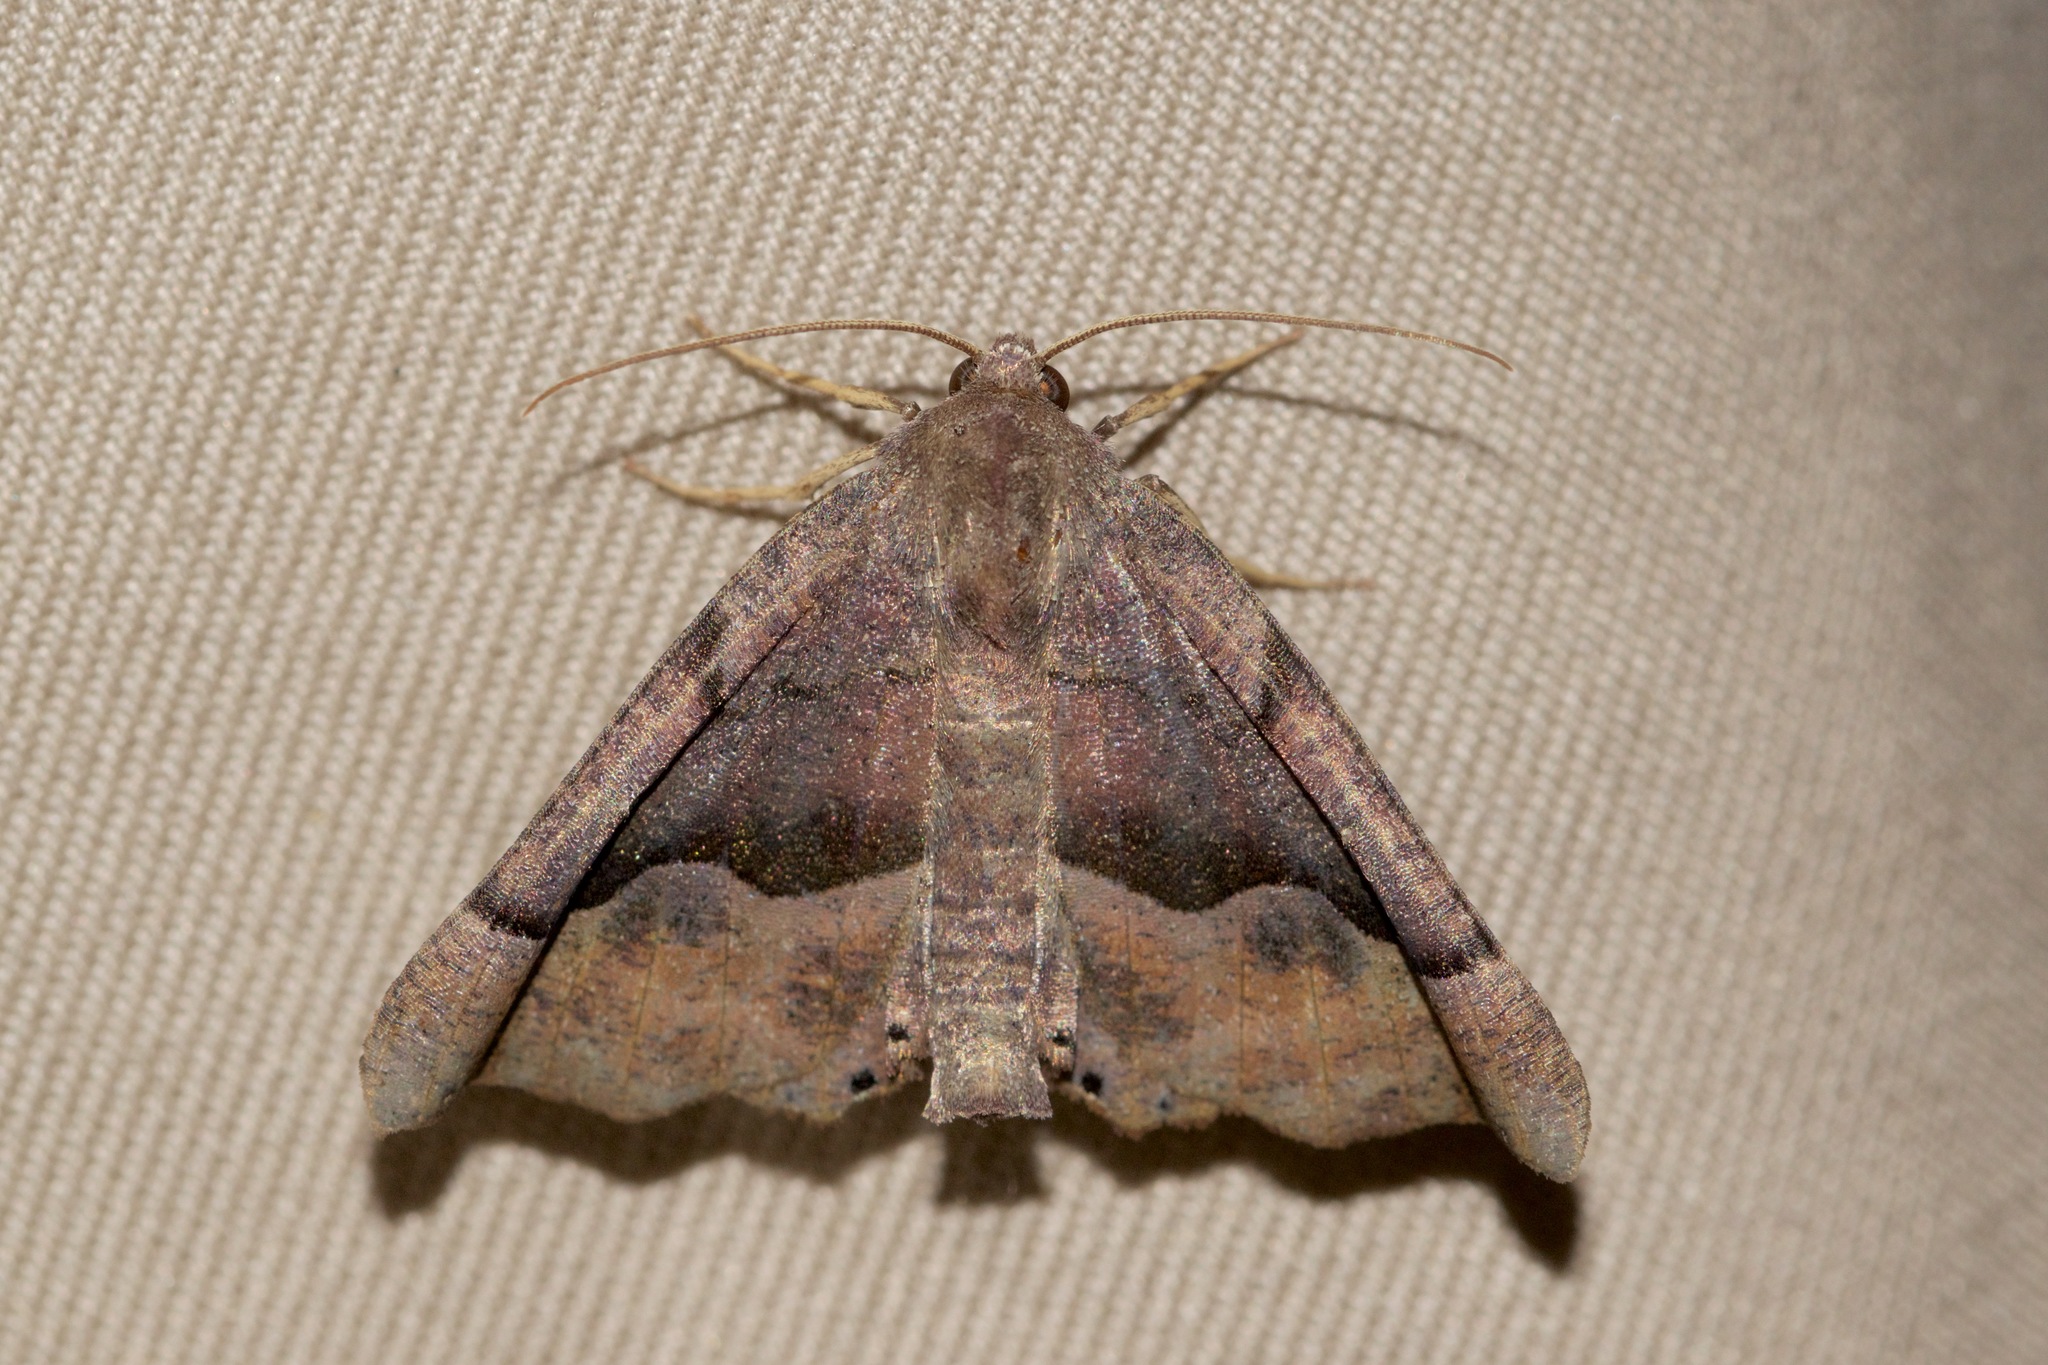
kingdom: Animalia
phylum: Arthropoda
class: Insecta
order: Lepidoptera
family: Geometridae
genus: Pero
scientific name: Pero honestaria
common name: Honest pero
